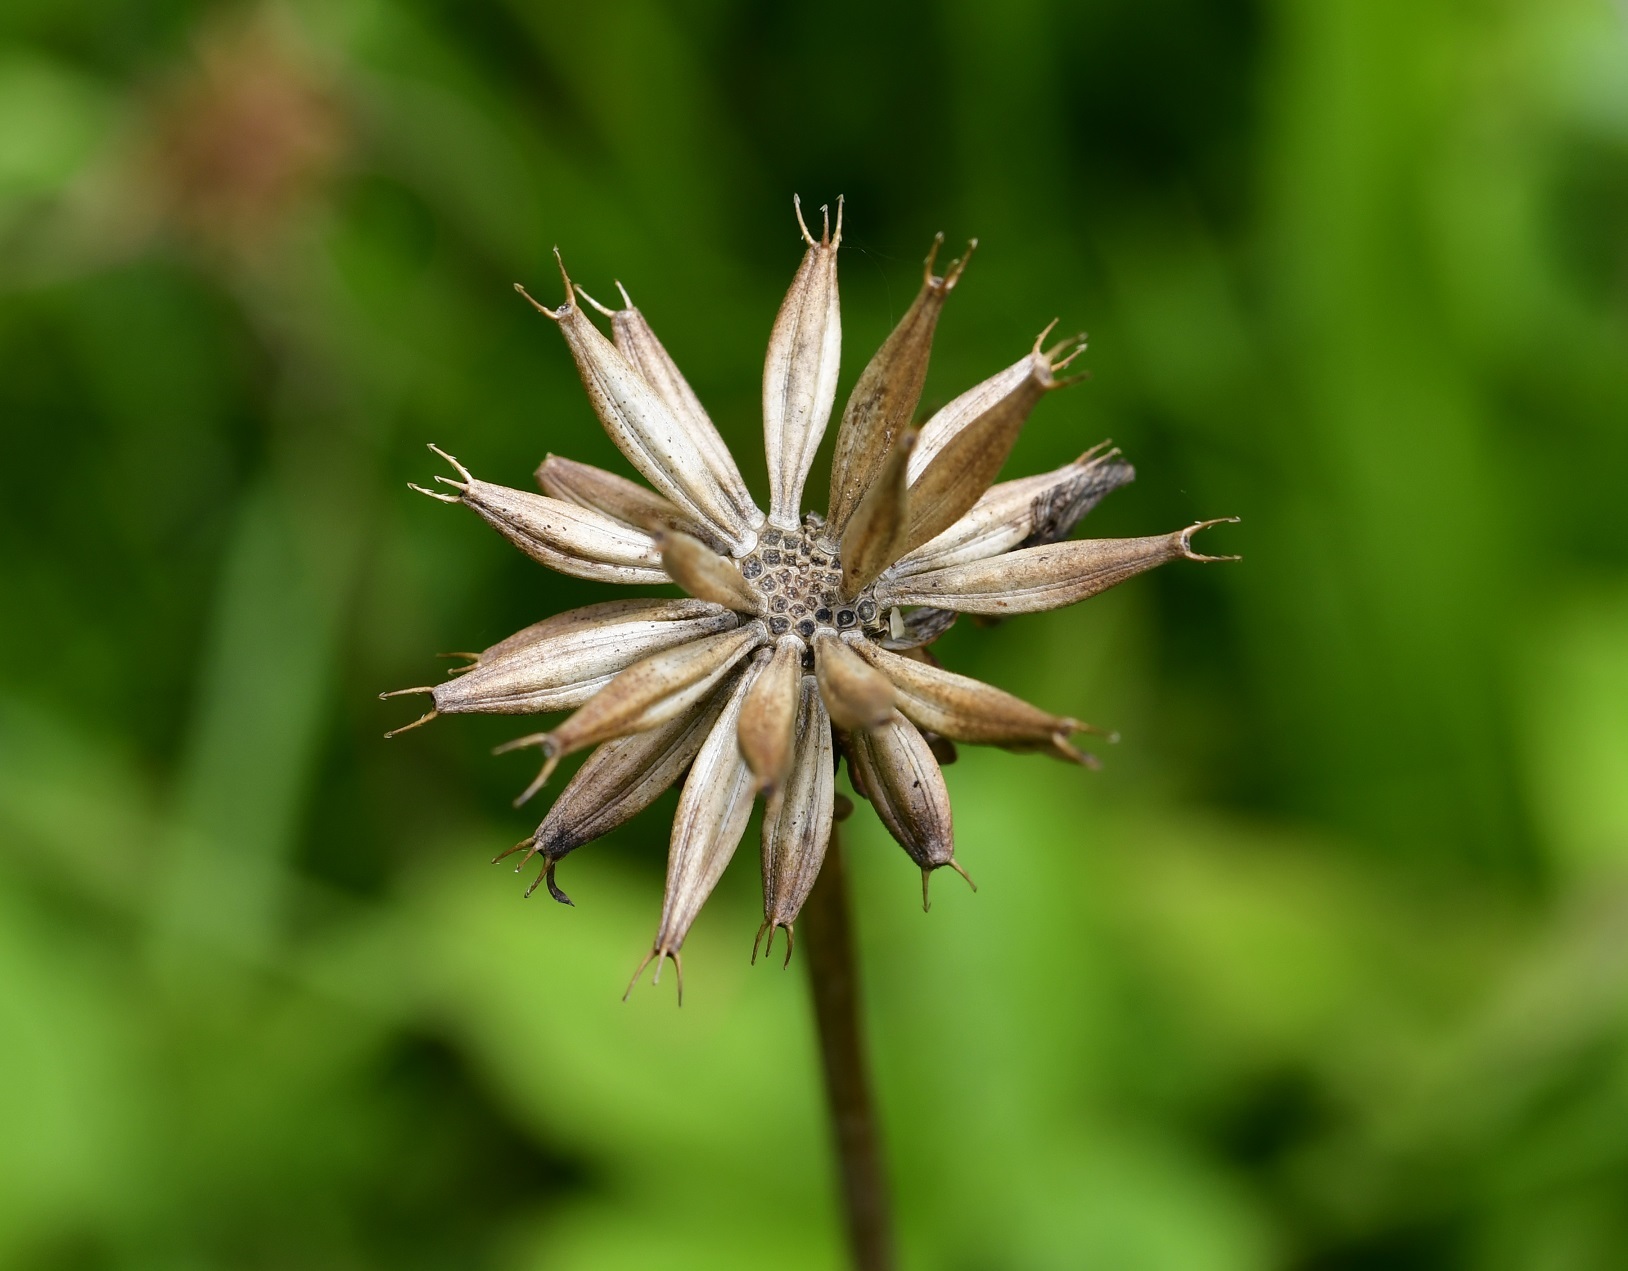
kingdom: Plantae
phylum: Tracheophyta
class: Magnoliopsida
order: Asterales
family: Asteraceae
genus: Cosmos
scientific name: Cosmos diversifolius
